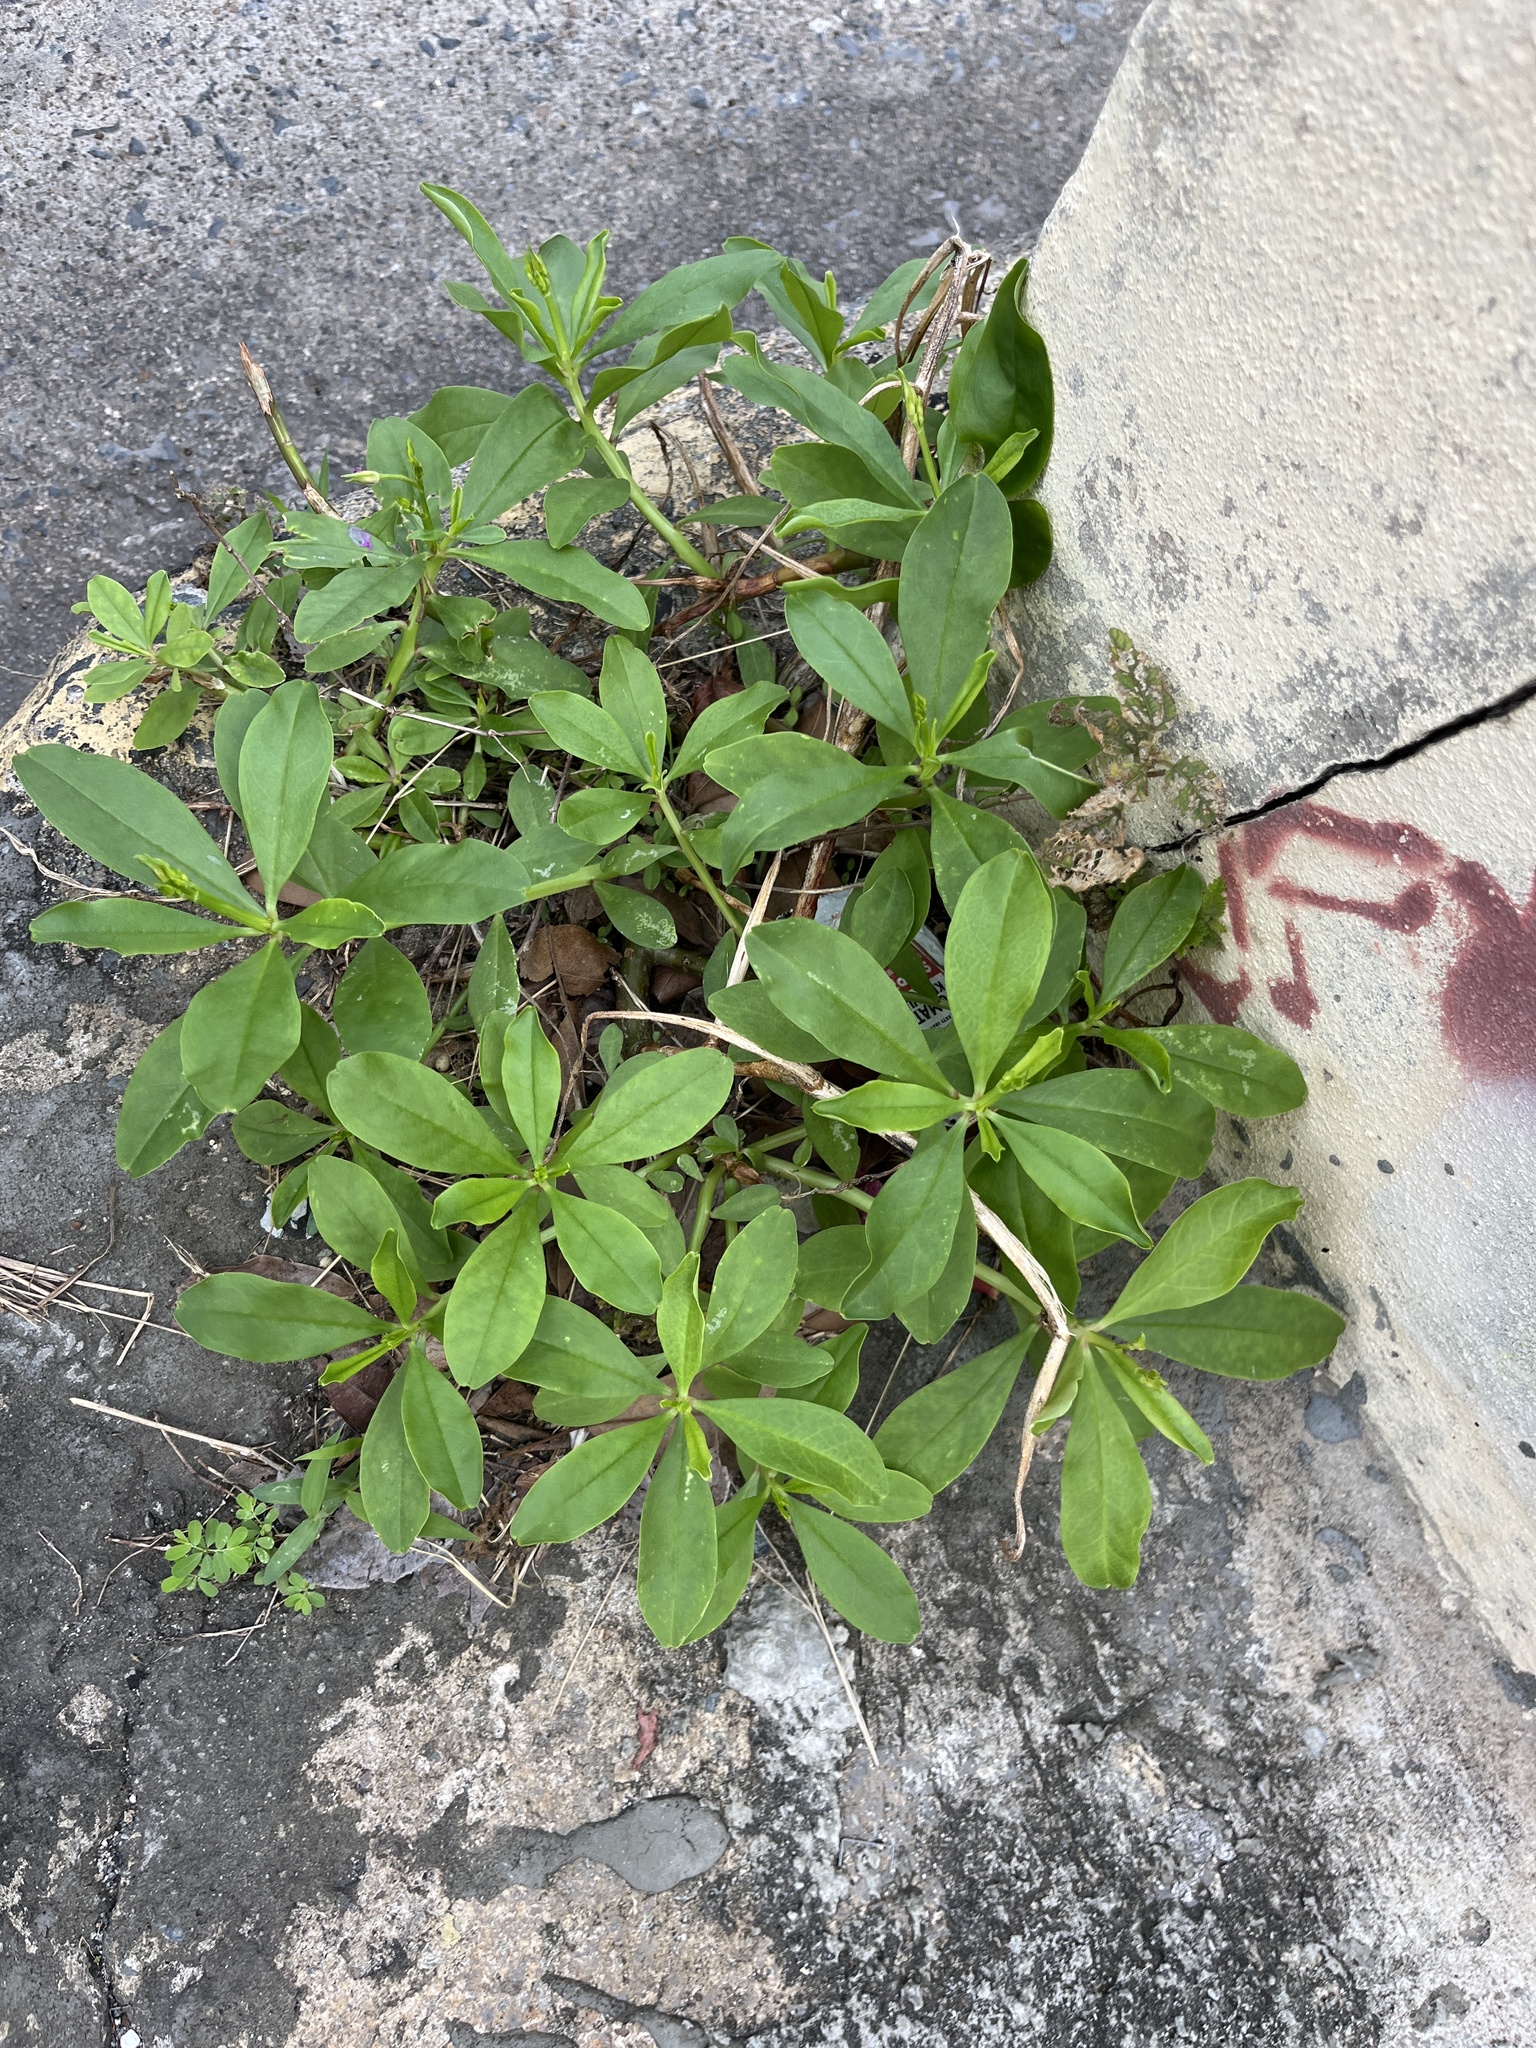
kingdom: Plantae
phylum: Tracheophyta
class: Magnoliopsida
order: Caryophyllales
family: Talinaceae
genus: Talinum
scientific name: Talinum fruticosum
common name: Verdolaga-francesa
